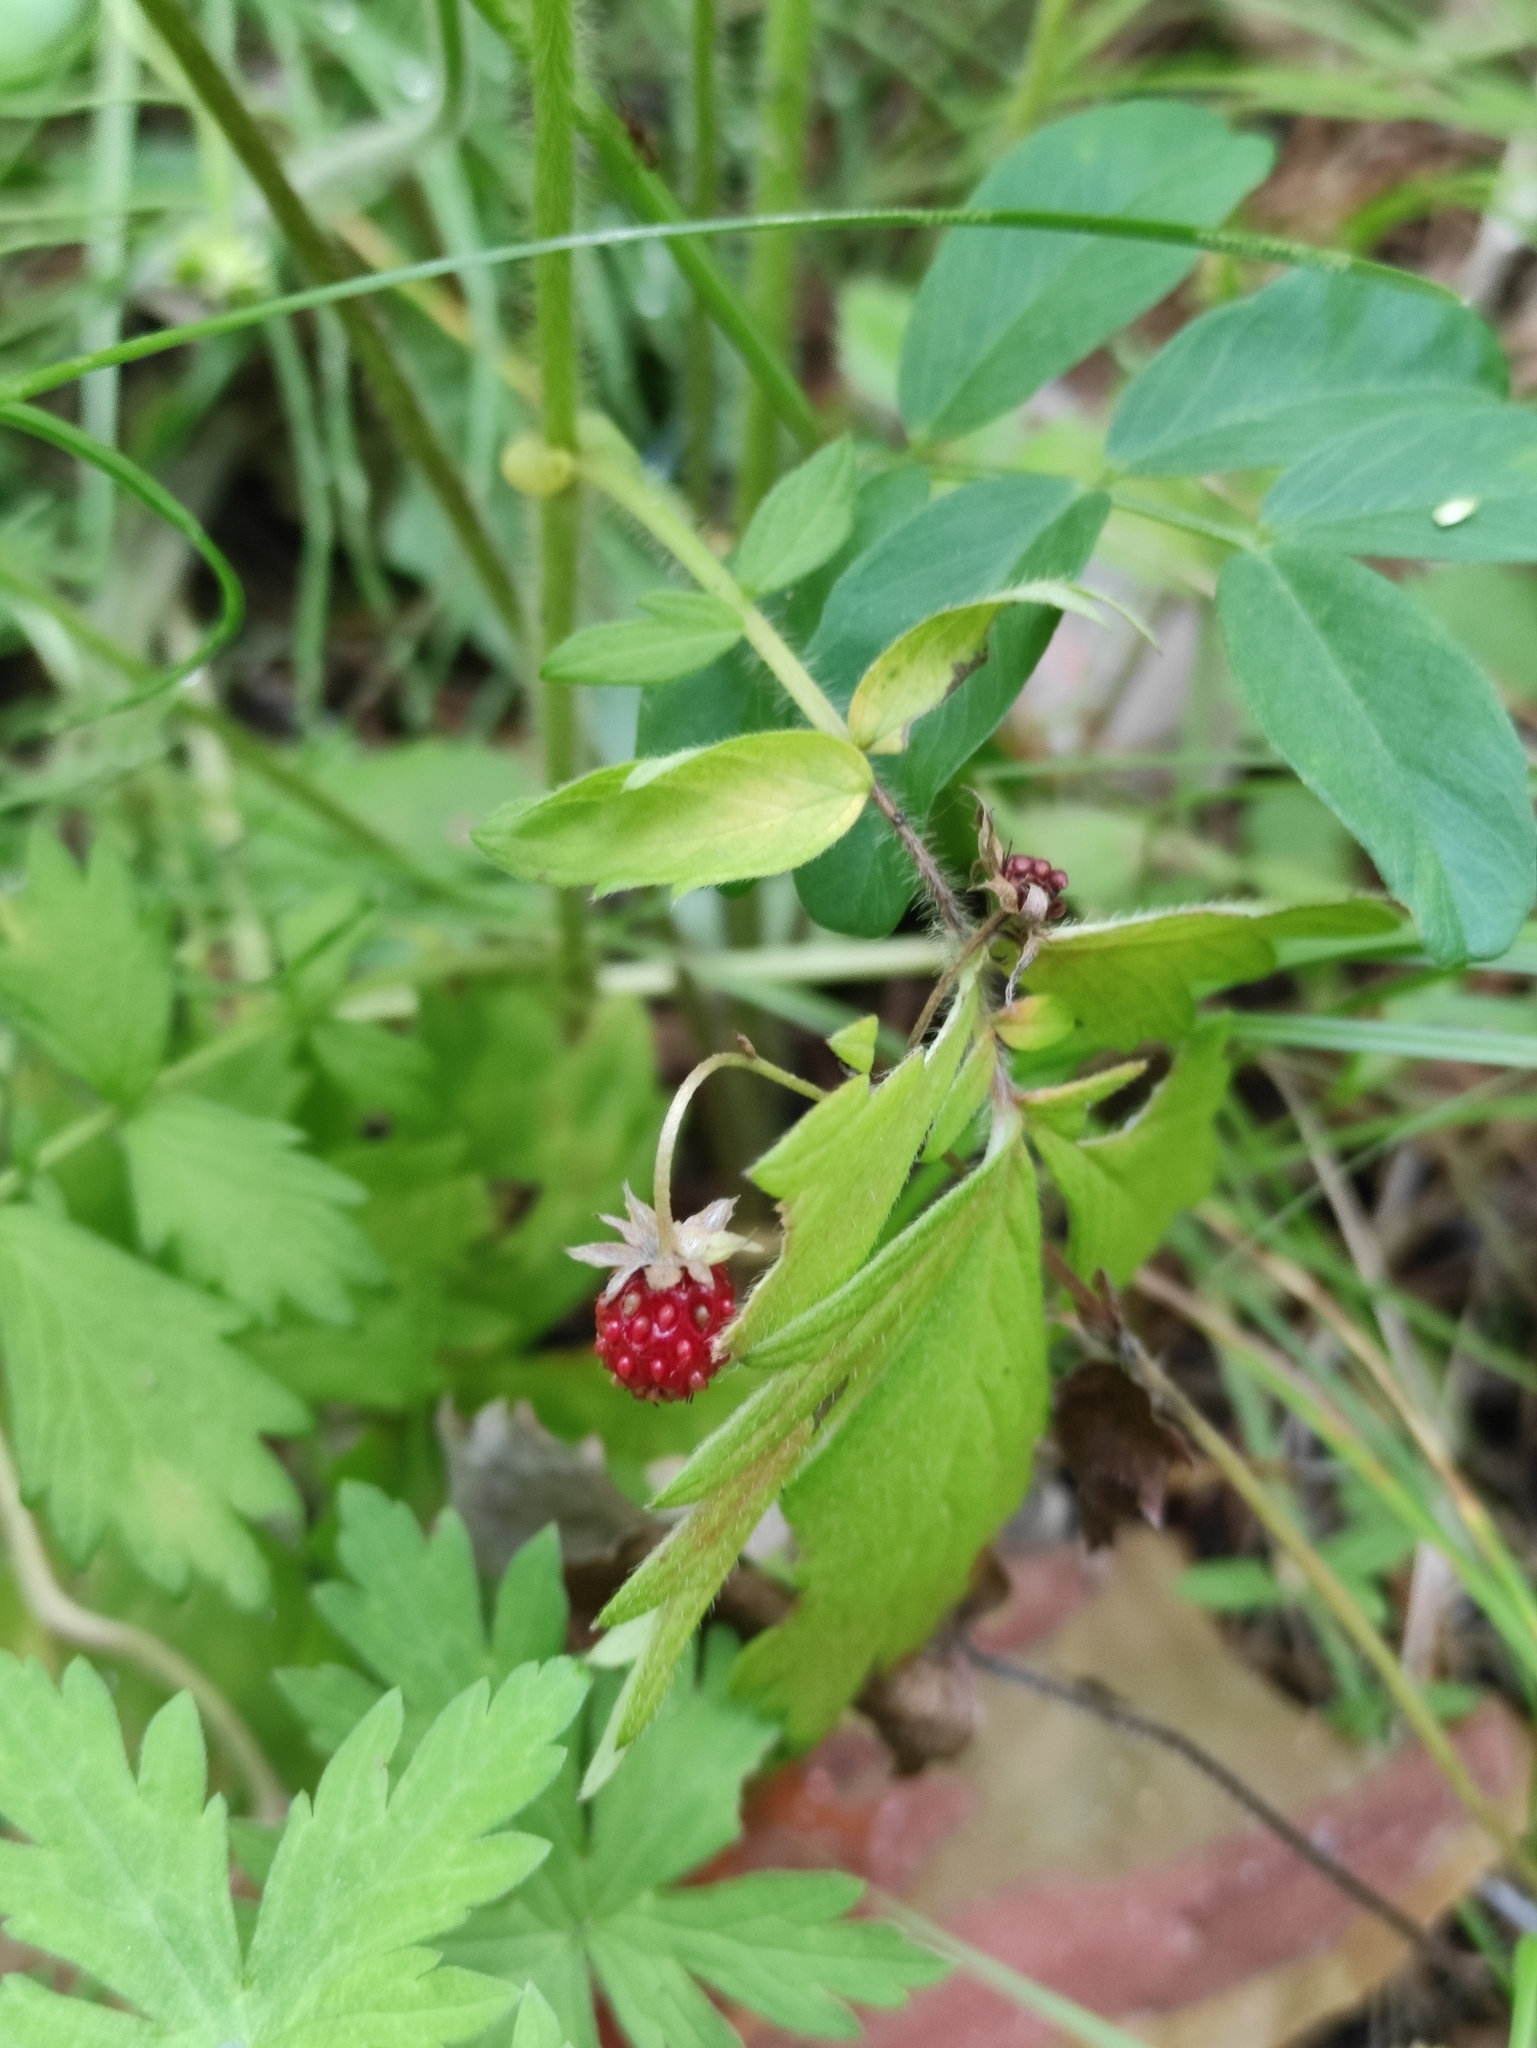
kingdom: Plantae
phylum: Tracheophyta
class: Magnoliopsida
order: Rosales
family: Rosaceae
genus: Fragaria
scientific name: Fragaria vesca
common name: Wild strawberry
